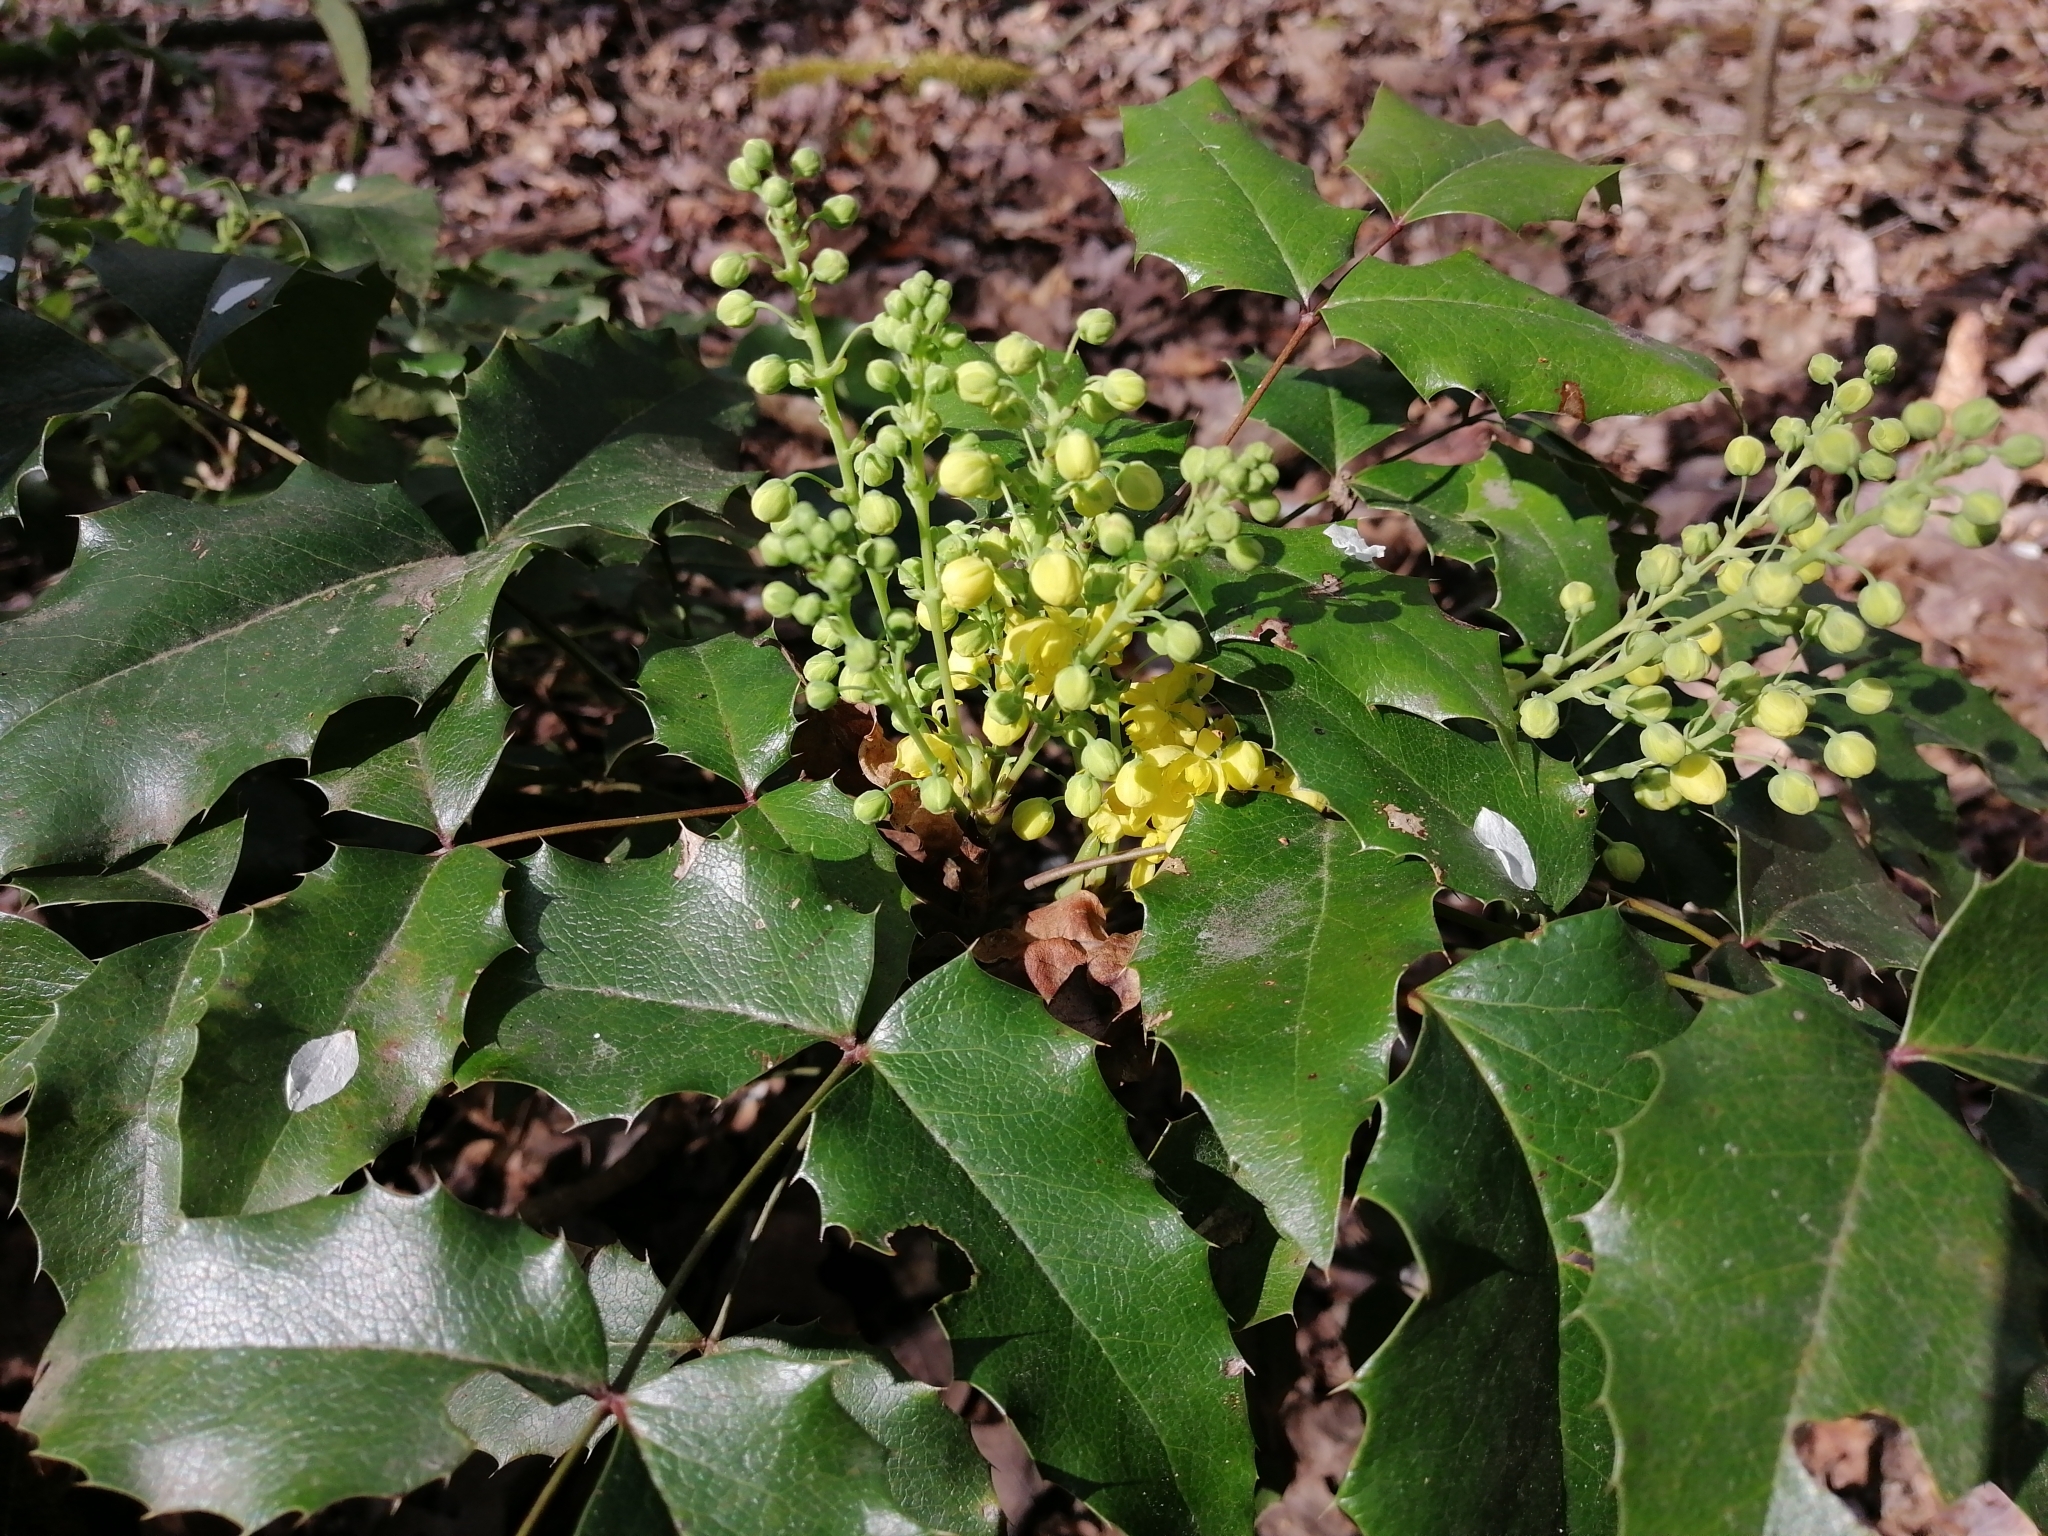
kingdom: Plantae
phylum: Tracheophyta
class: Magnoliopsida
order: Ranunculales
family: Berberidaceae
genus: Mahonia
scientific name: Mahonia aquifolium
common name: Oregon-grape
